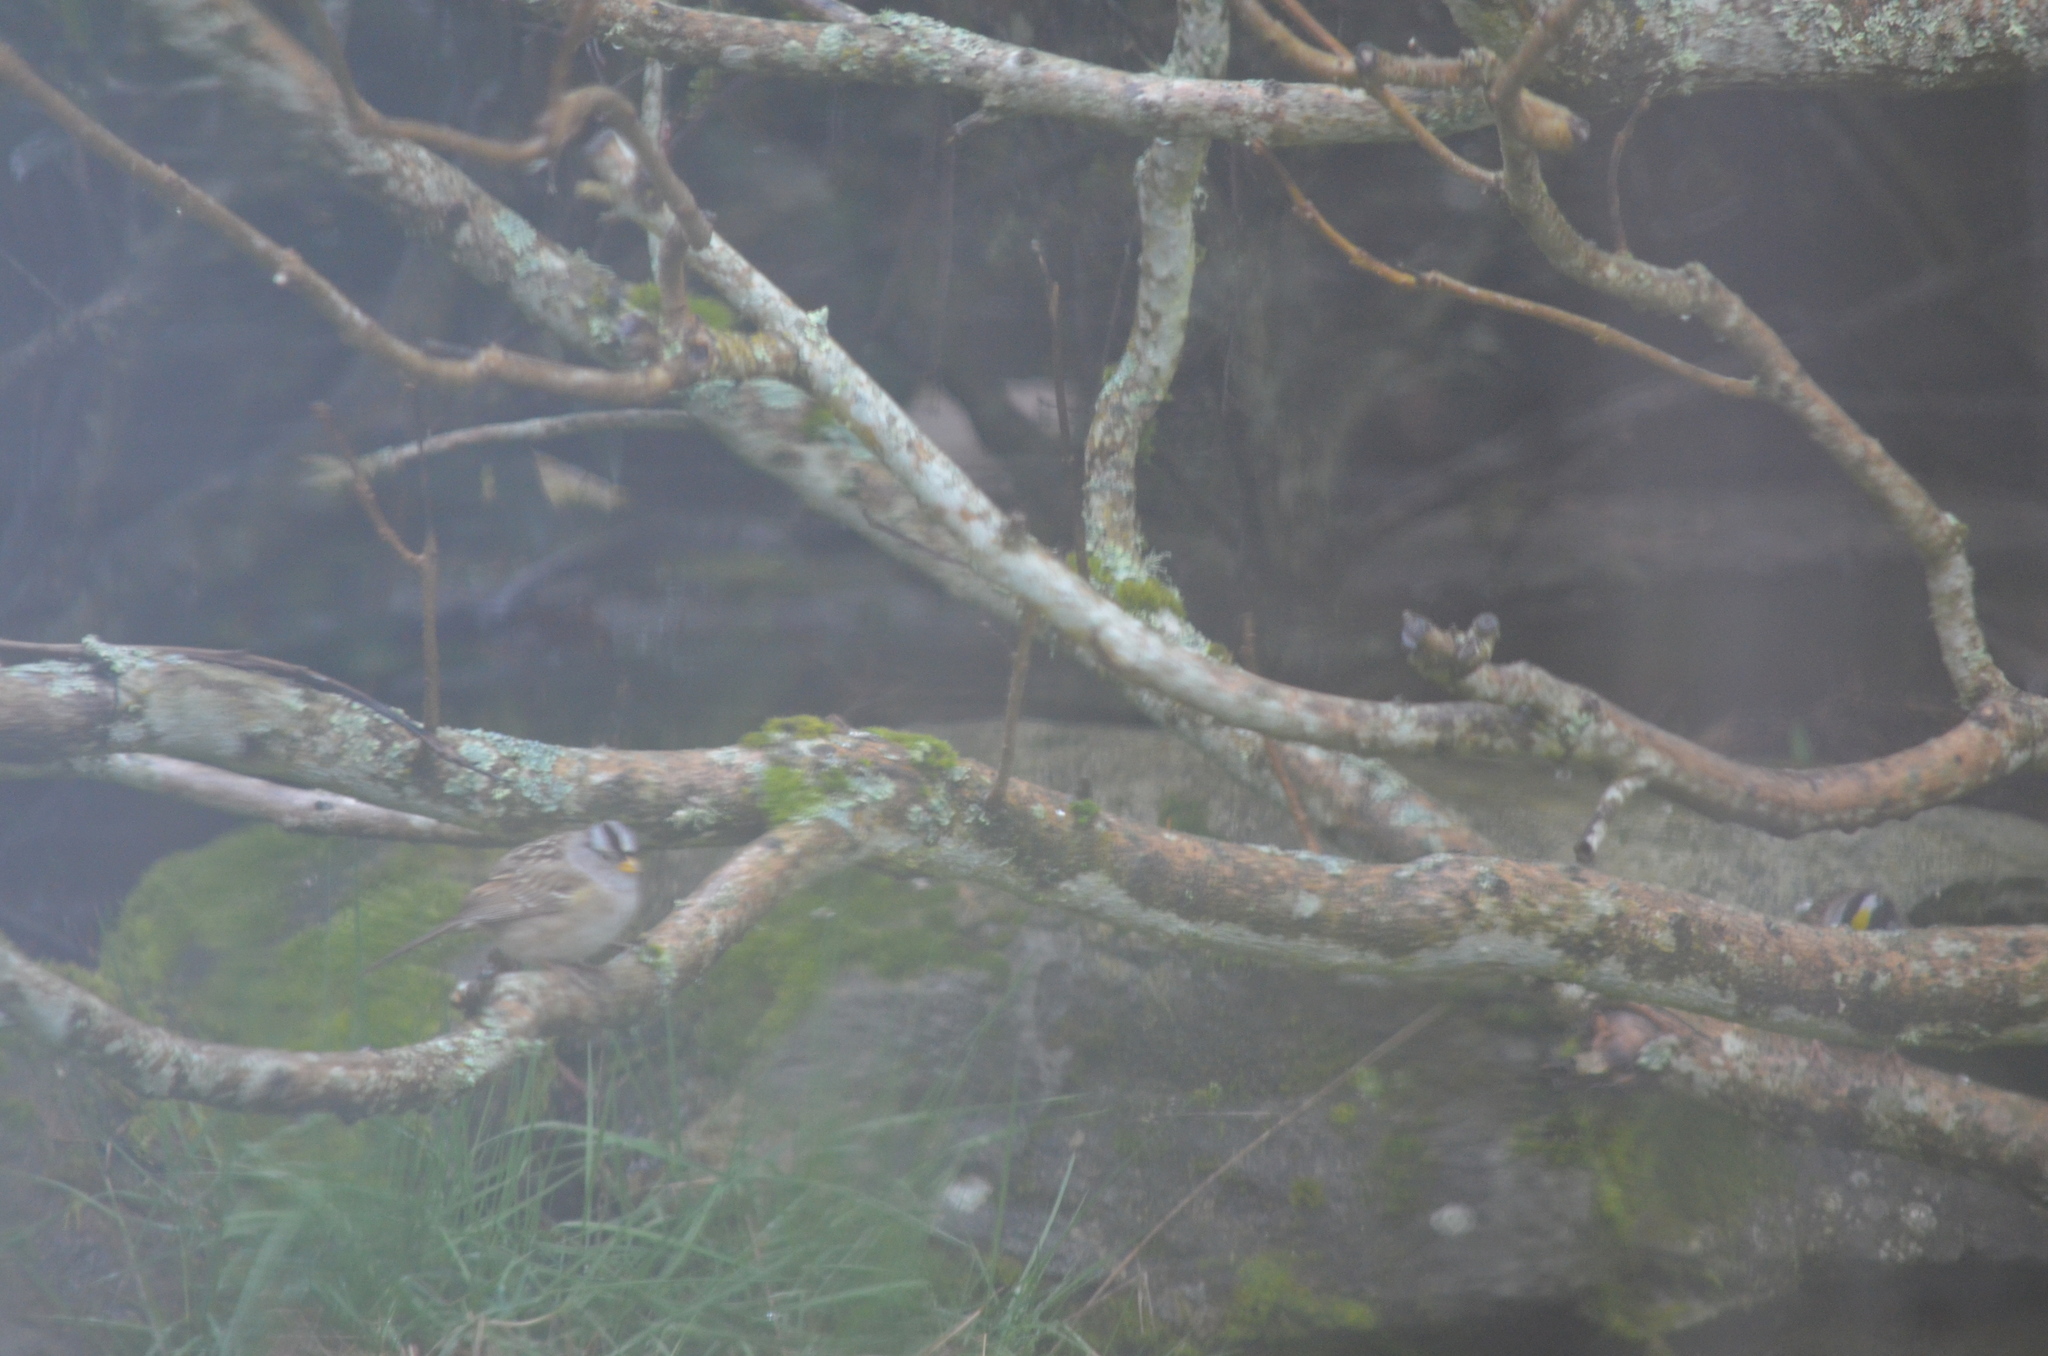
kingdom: Animalia
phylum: Chordata
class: Aves
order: Passeriformes
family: Passerellidae
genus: Zonotrichia
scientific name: Zonotrichia leucophrys
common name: White-crowned sparrow
